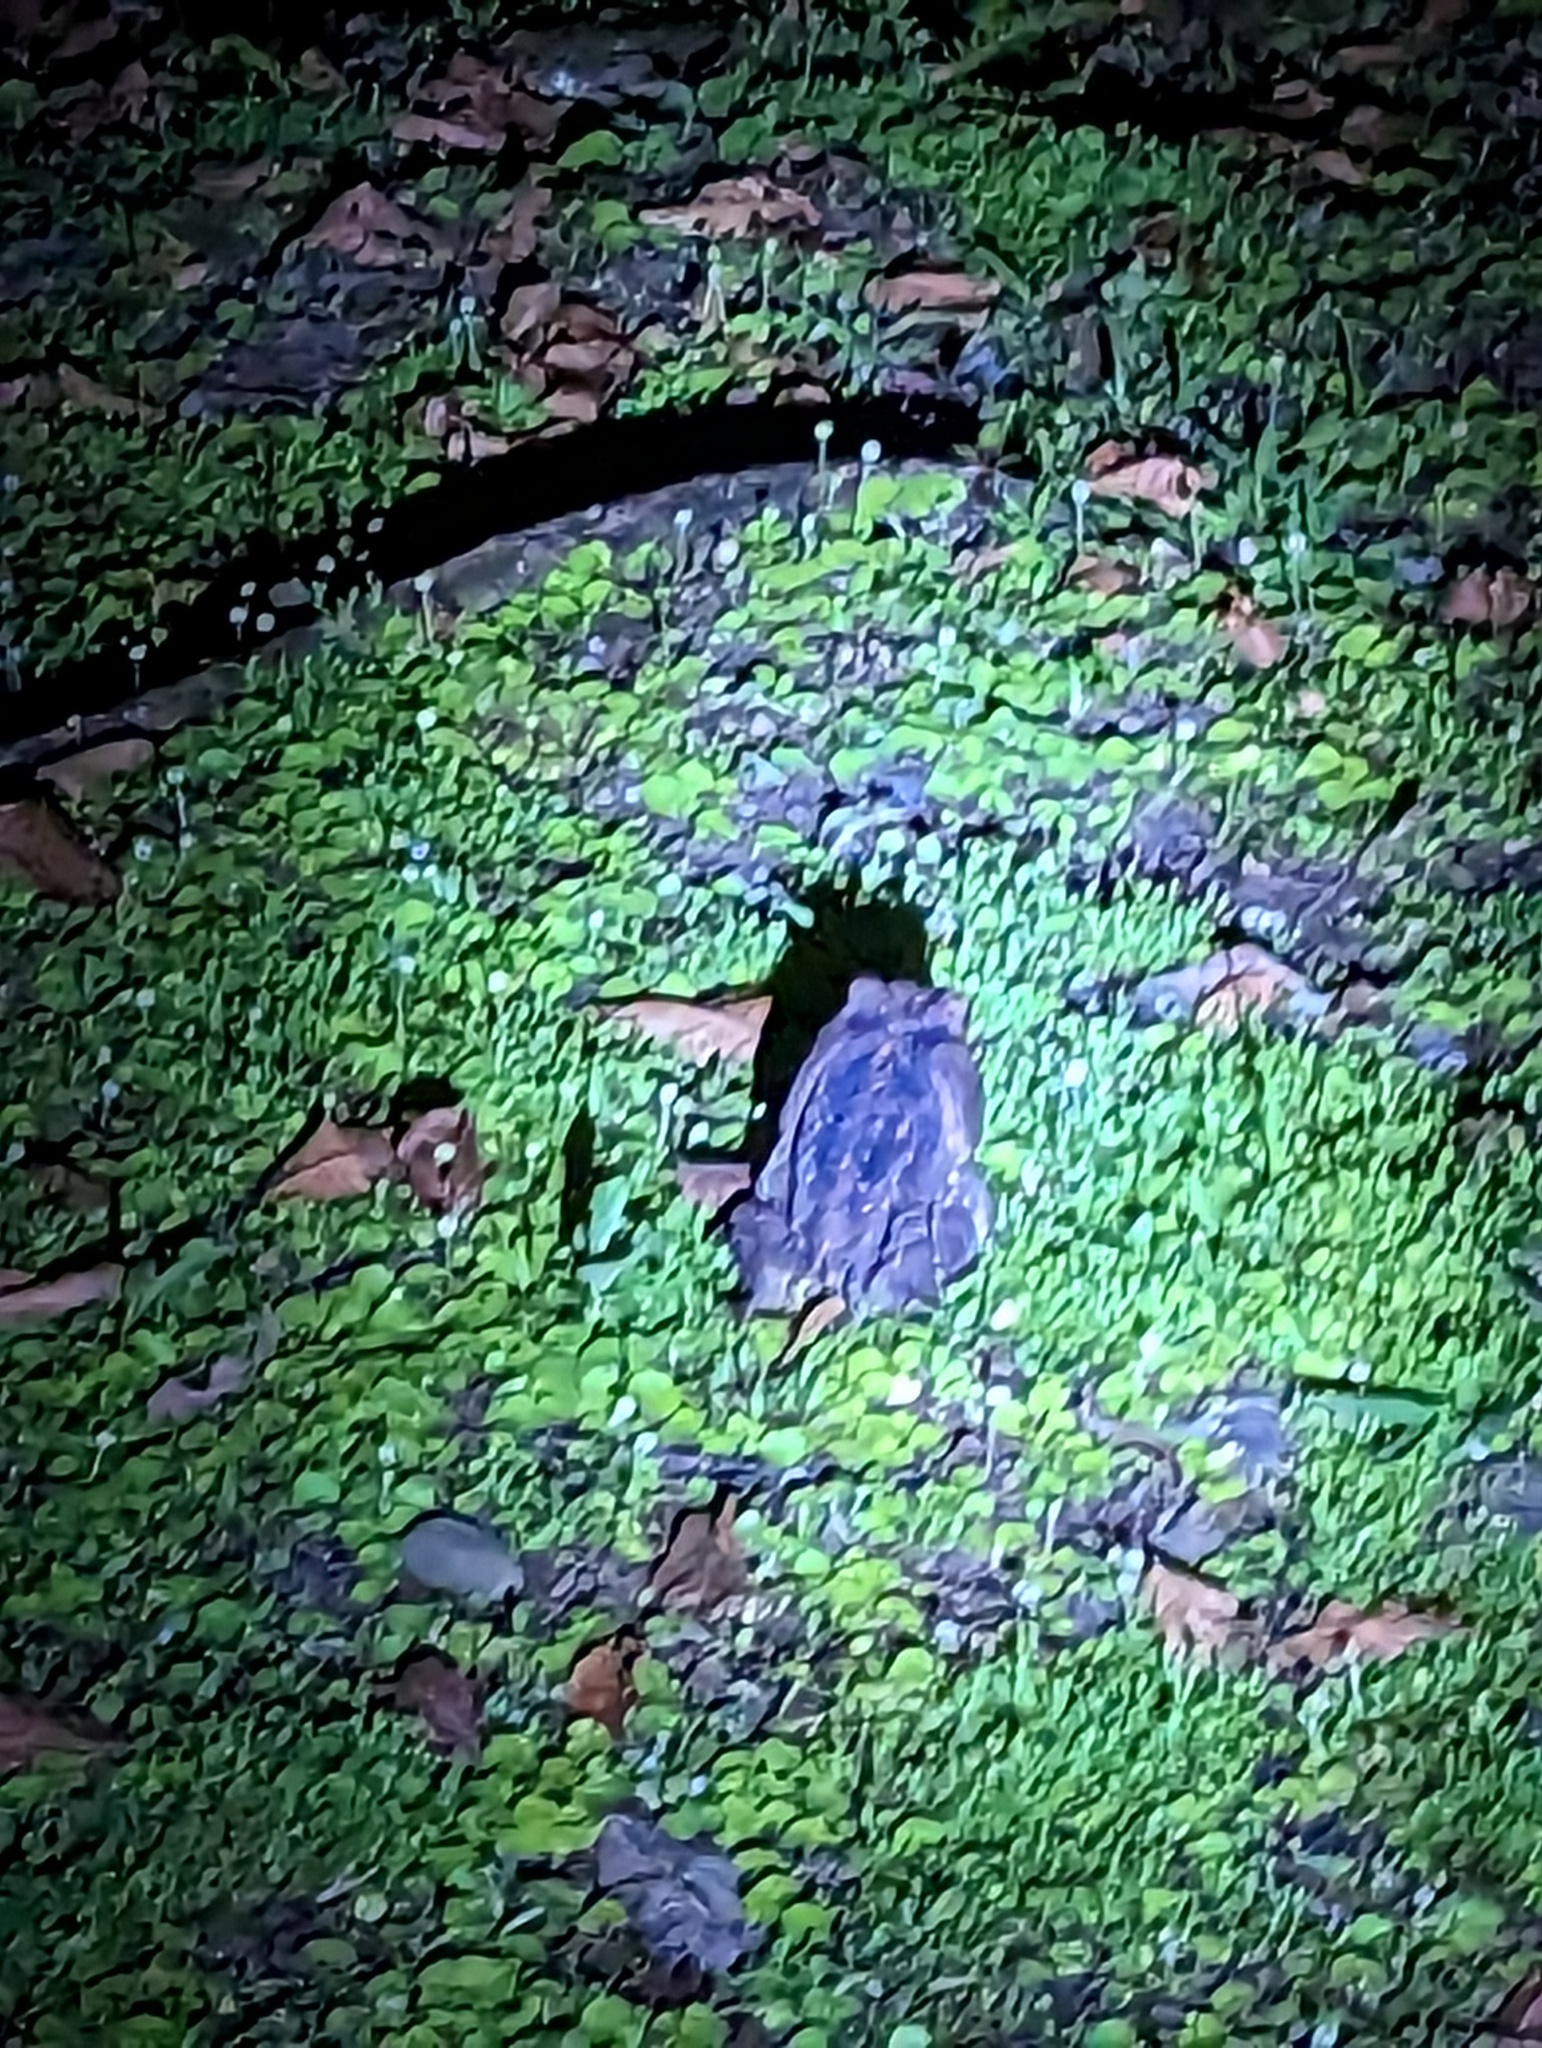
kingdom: Animalia
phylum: Chordata
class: Amphibia
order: Anura
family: Bufonidae
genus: Rhinella
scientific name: Rhinella horribilis
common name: Mesoamerican cane toad
